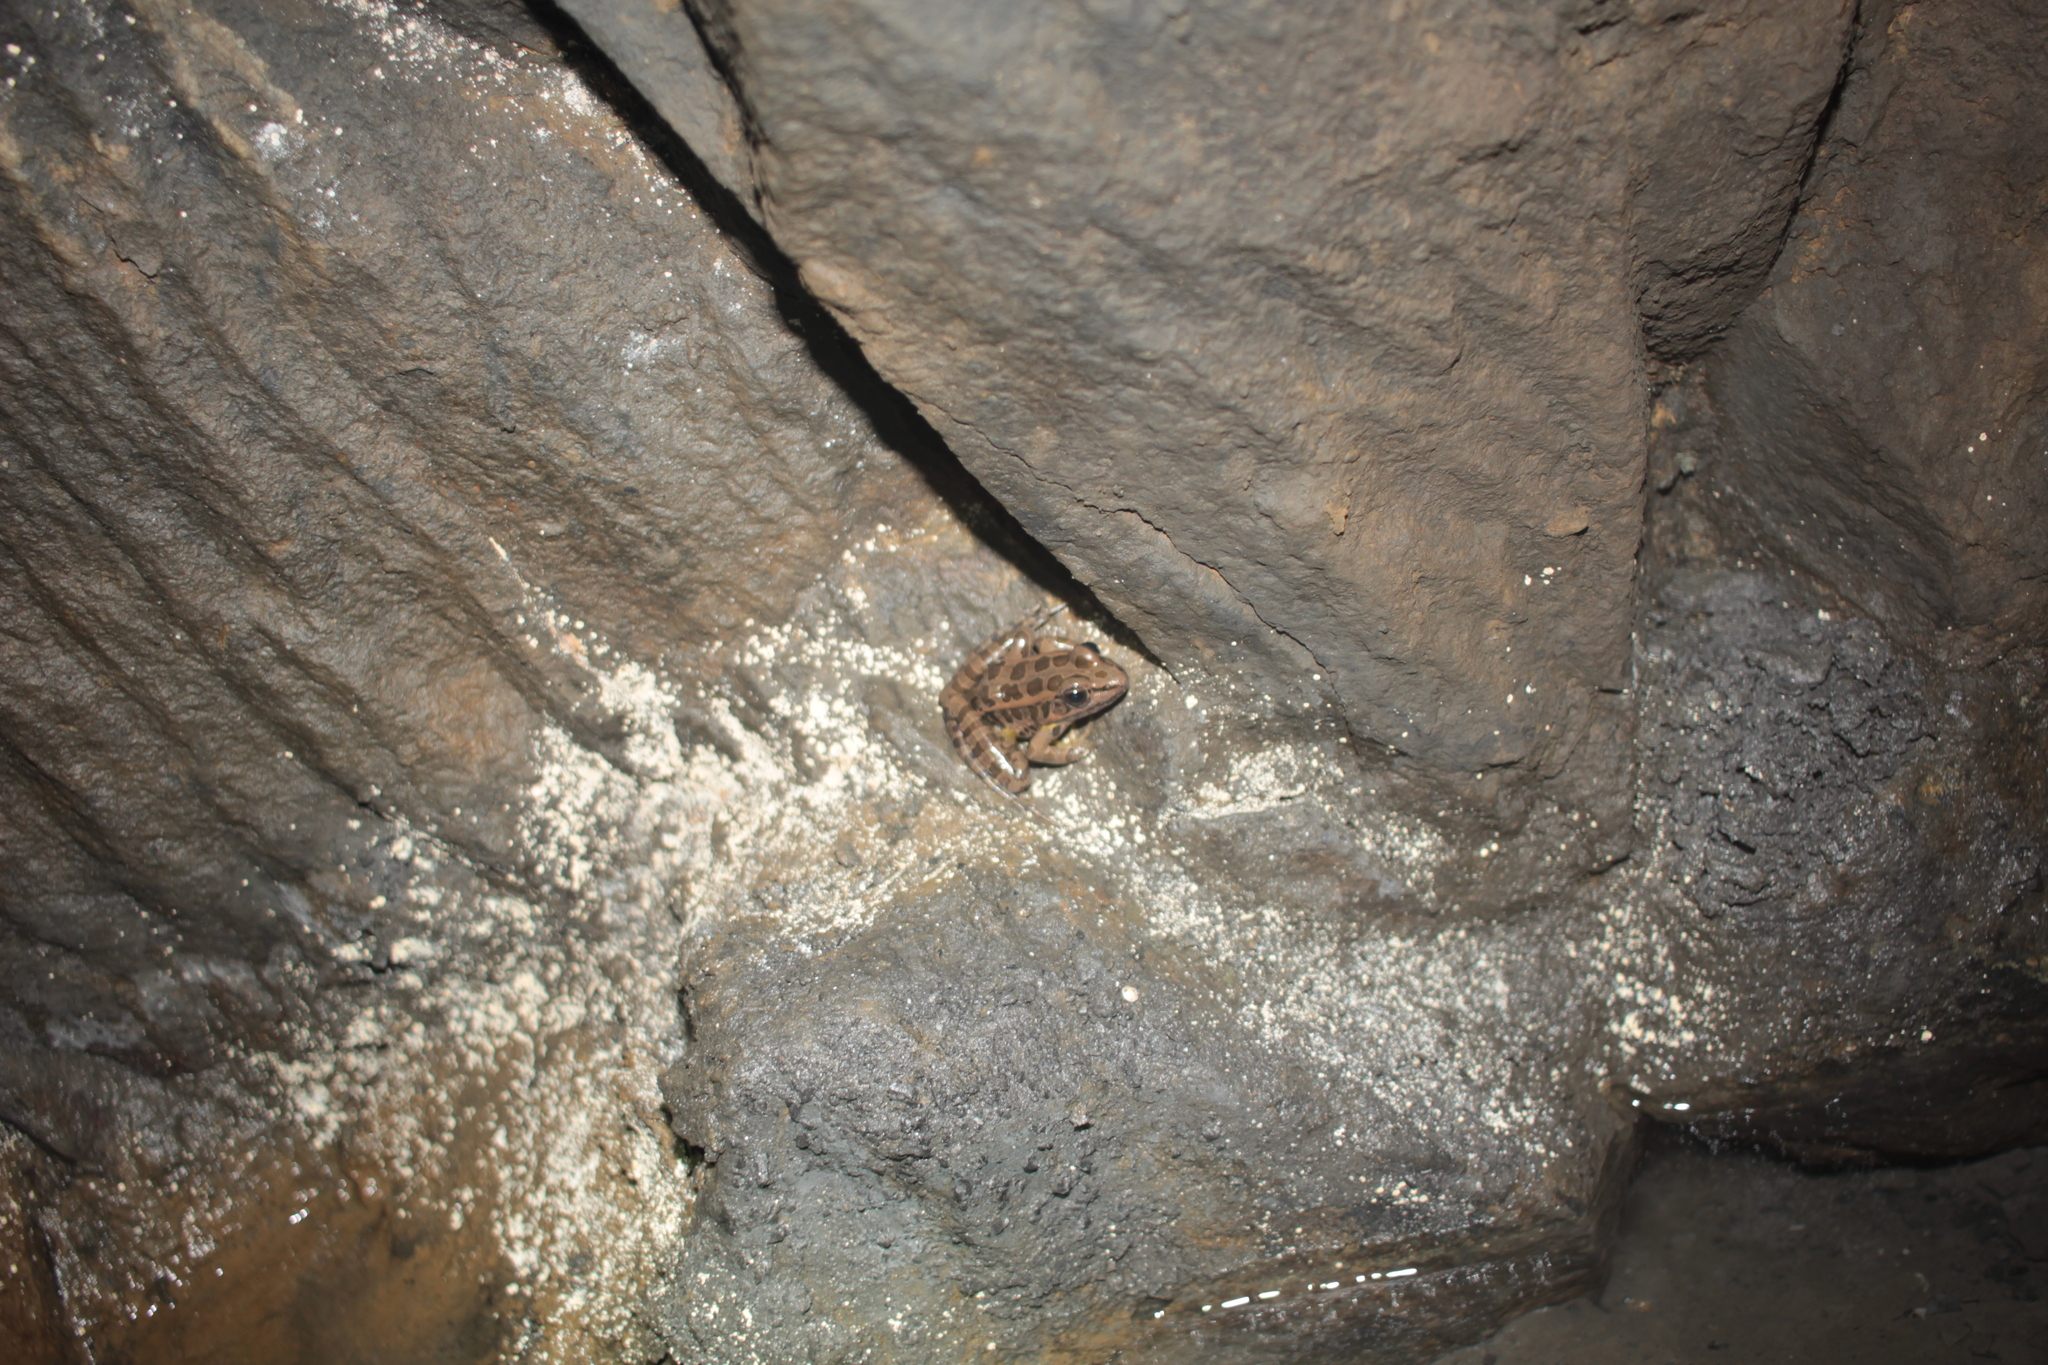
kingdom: Animalia
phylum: Chordata
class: Amphibia
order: Anura
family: Ranidae
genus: Lithobates
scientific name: Lithobates palustris
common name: Pickerel frog
